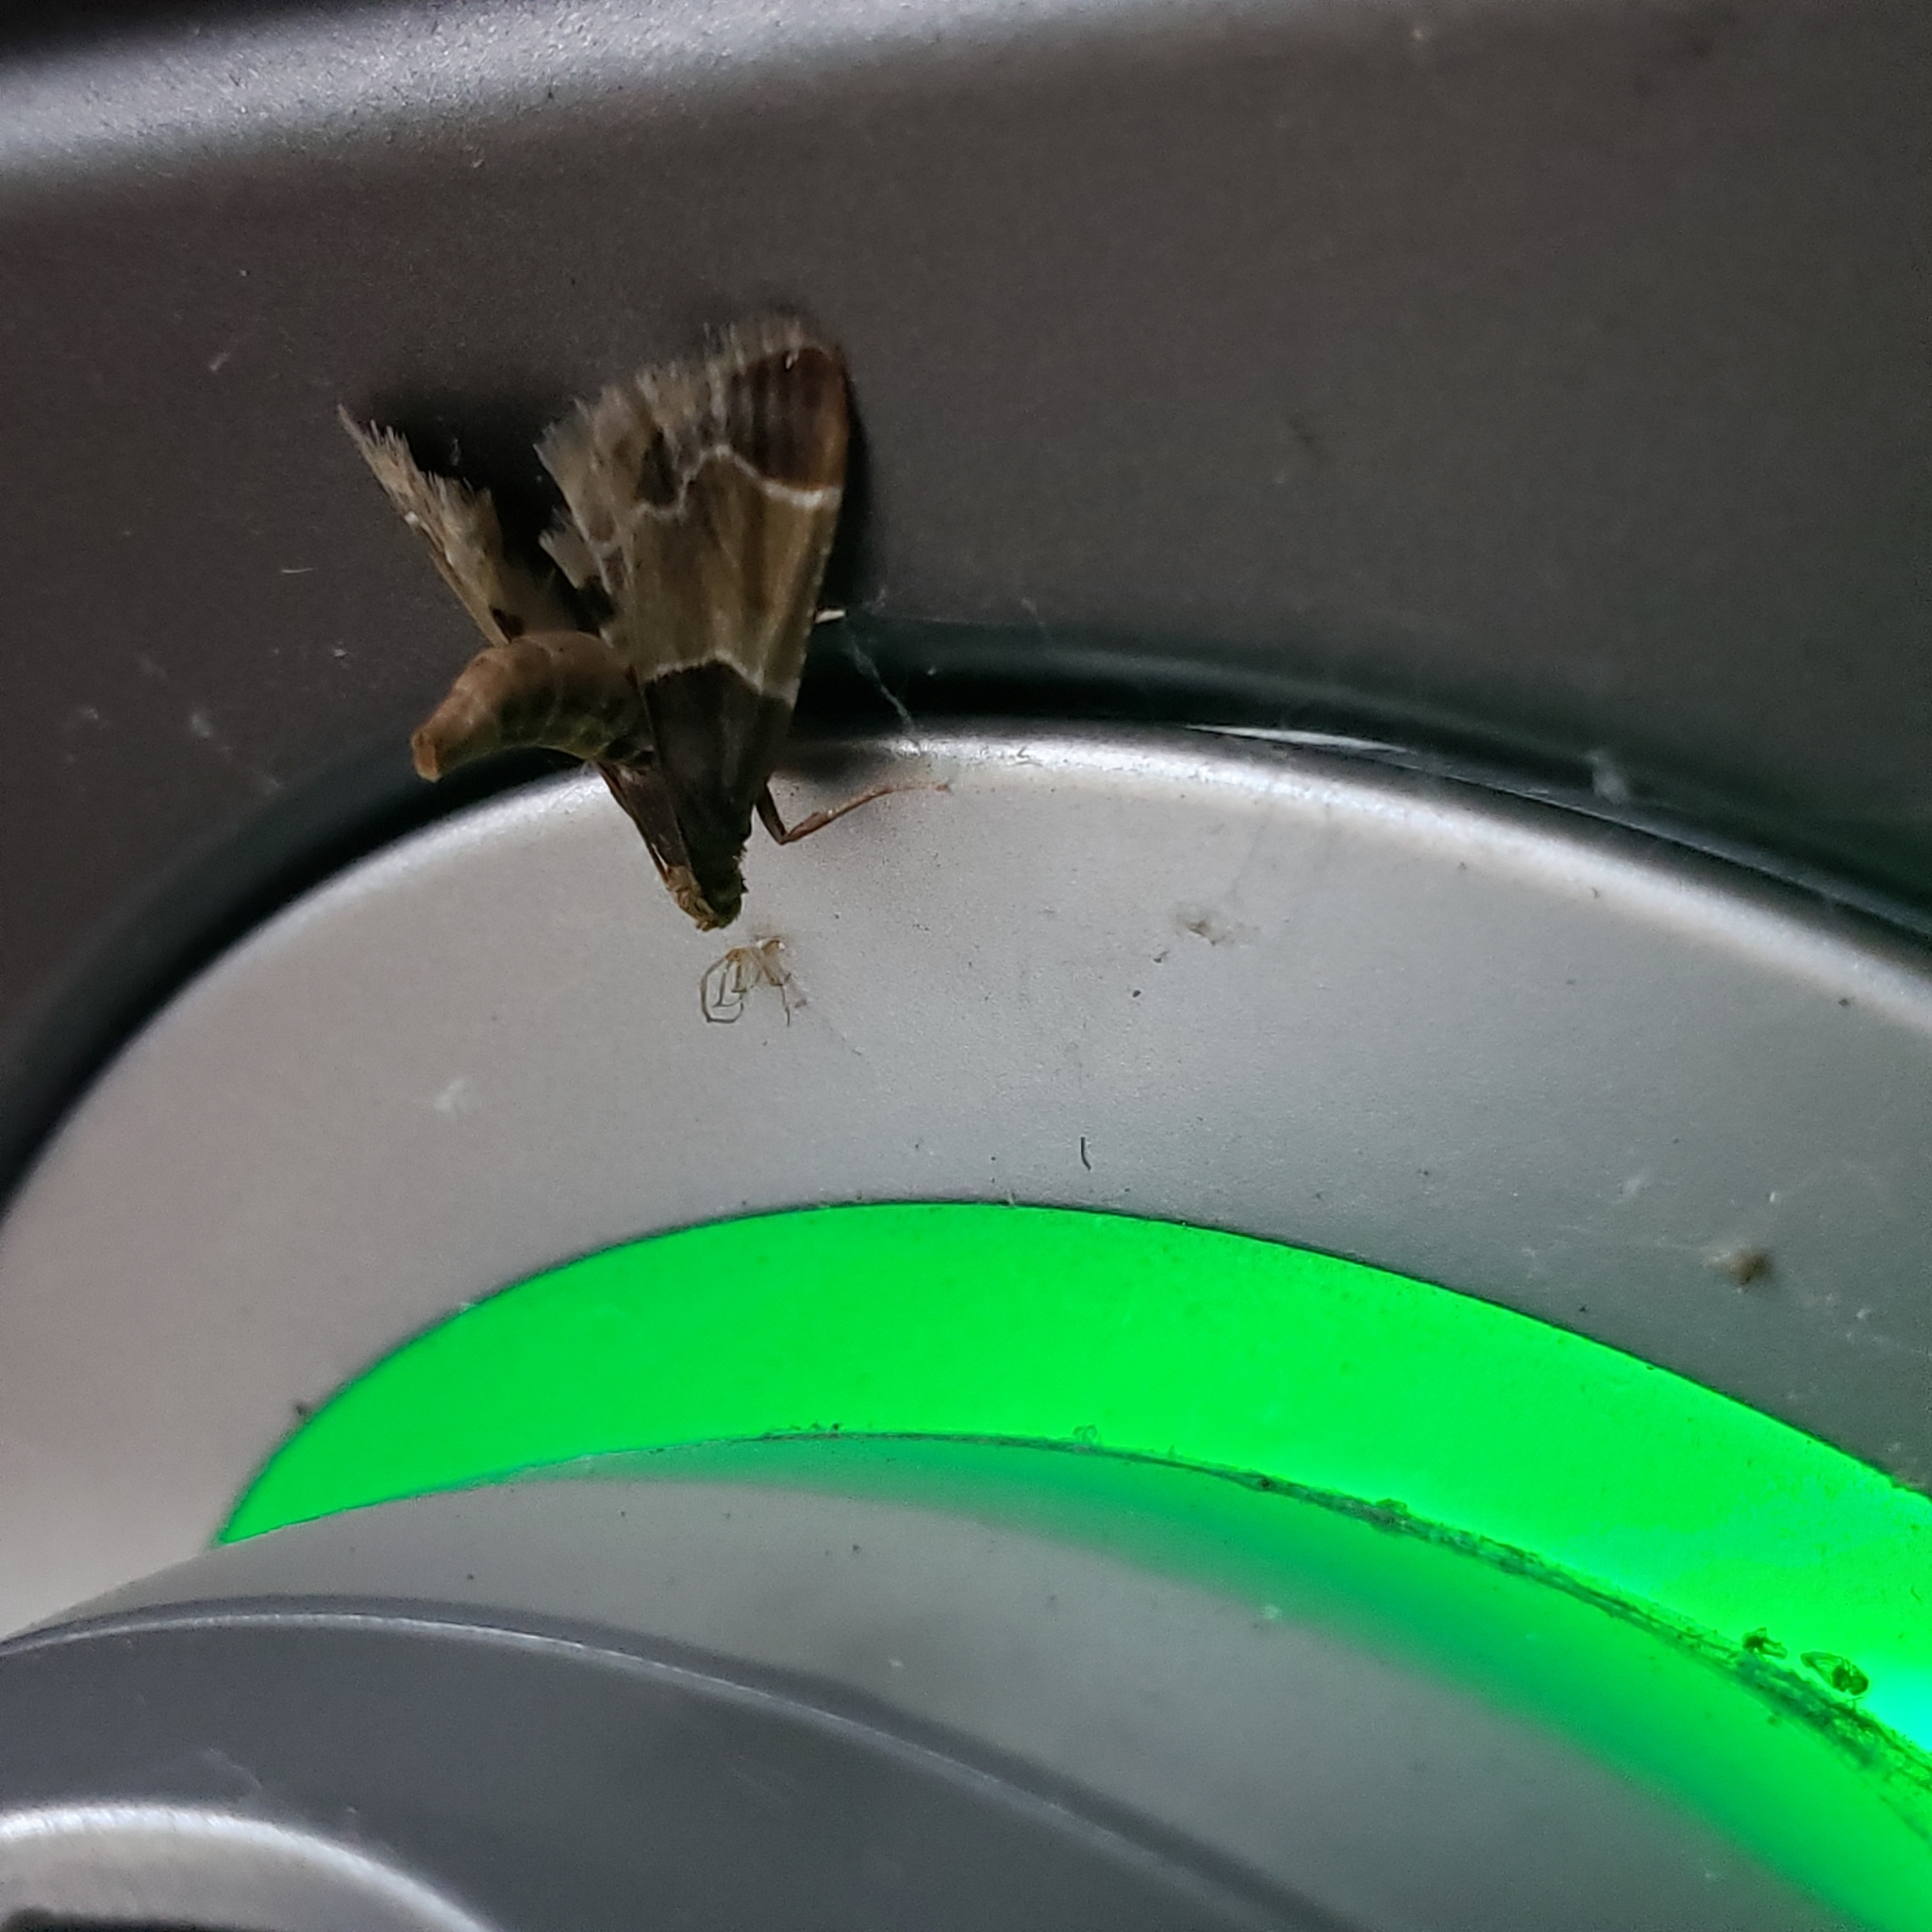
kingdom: Animalia
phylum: Arthropoda
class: Insecta
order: Lepidoptera
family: Pyralidae
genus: Pyralis
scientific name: Pyralis farinalis
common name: Meal moth
